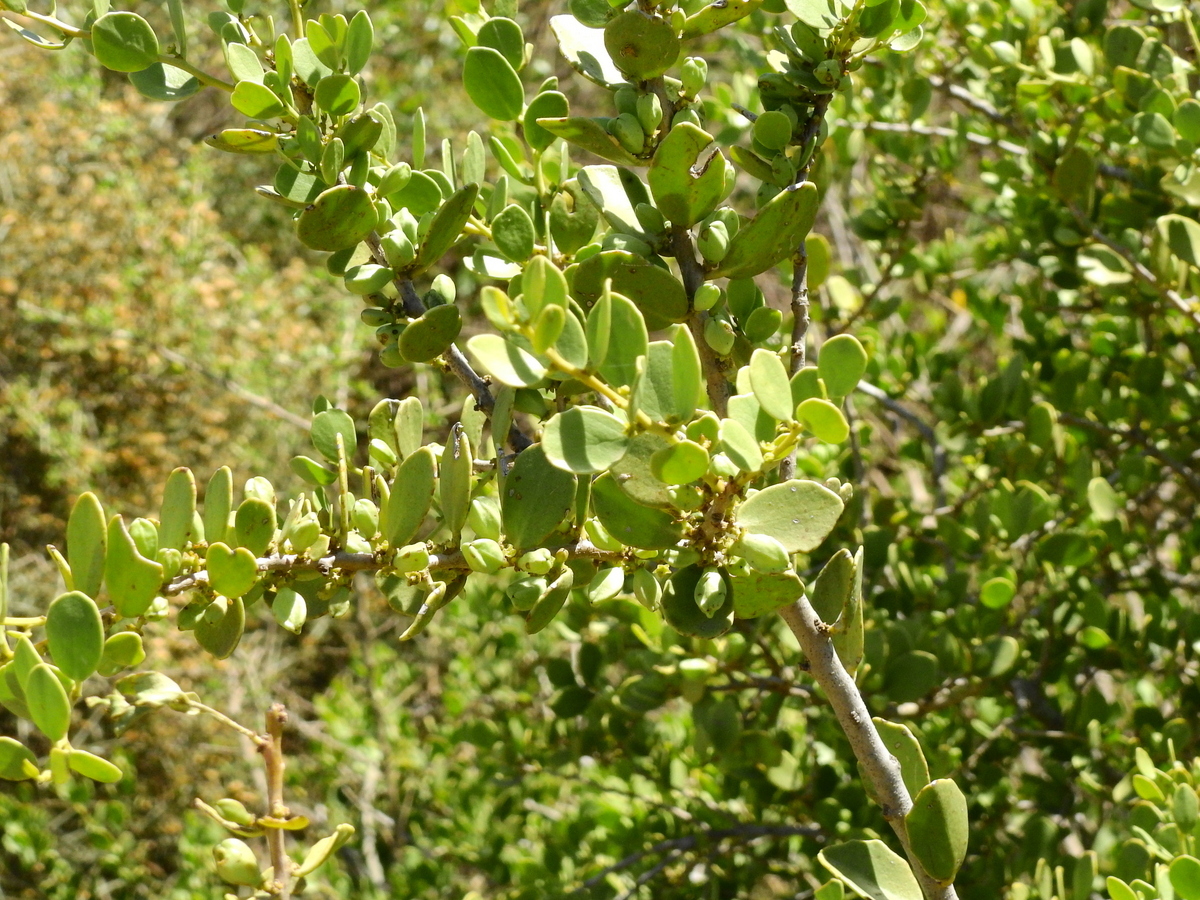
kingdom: Plantae
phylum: Tracheophyta
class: Magnoliopsida
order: Celastrales
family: Celastraceae
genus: Tricerma
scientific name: Tricerma vitis-idaeum
